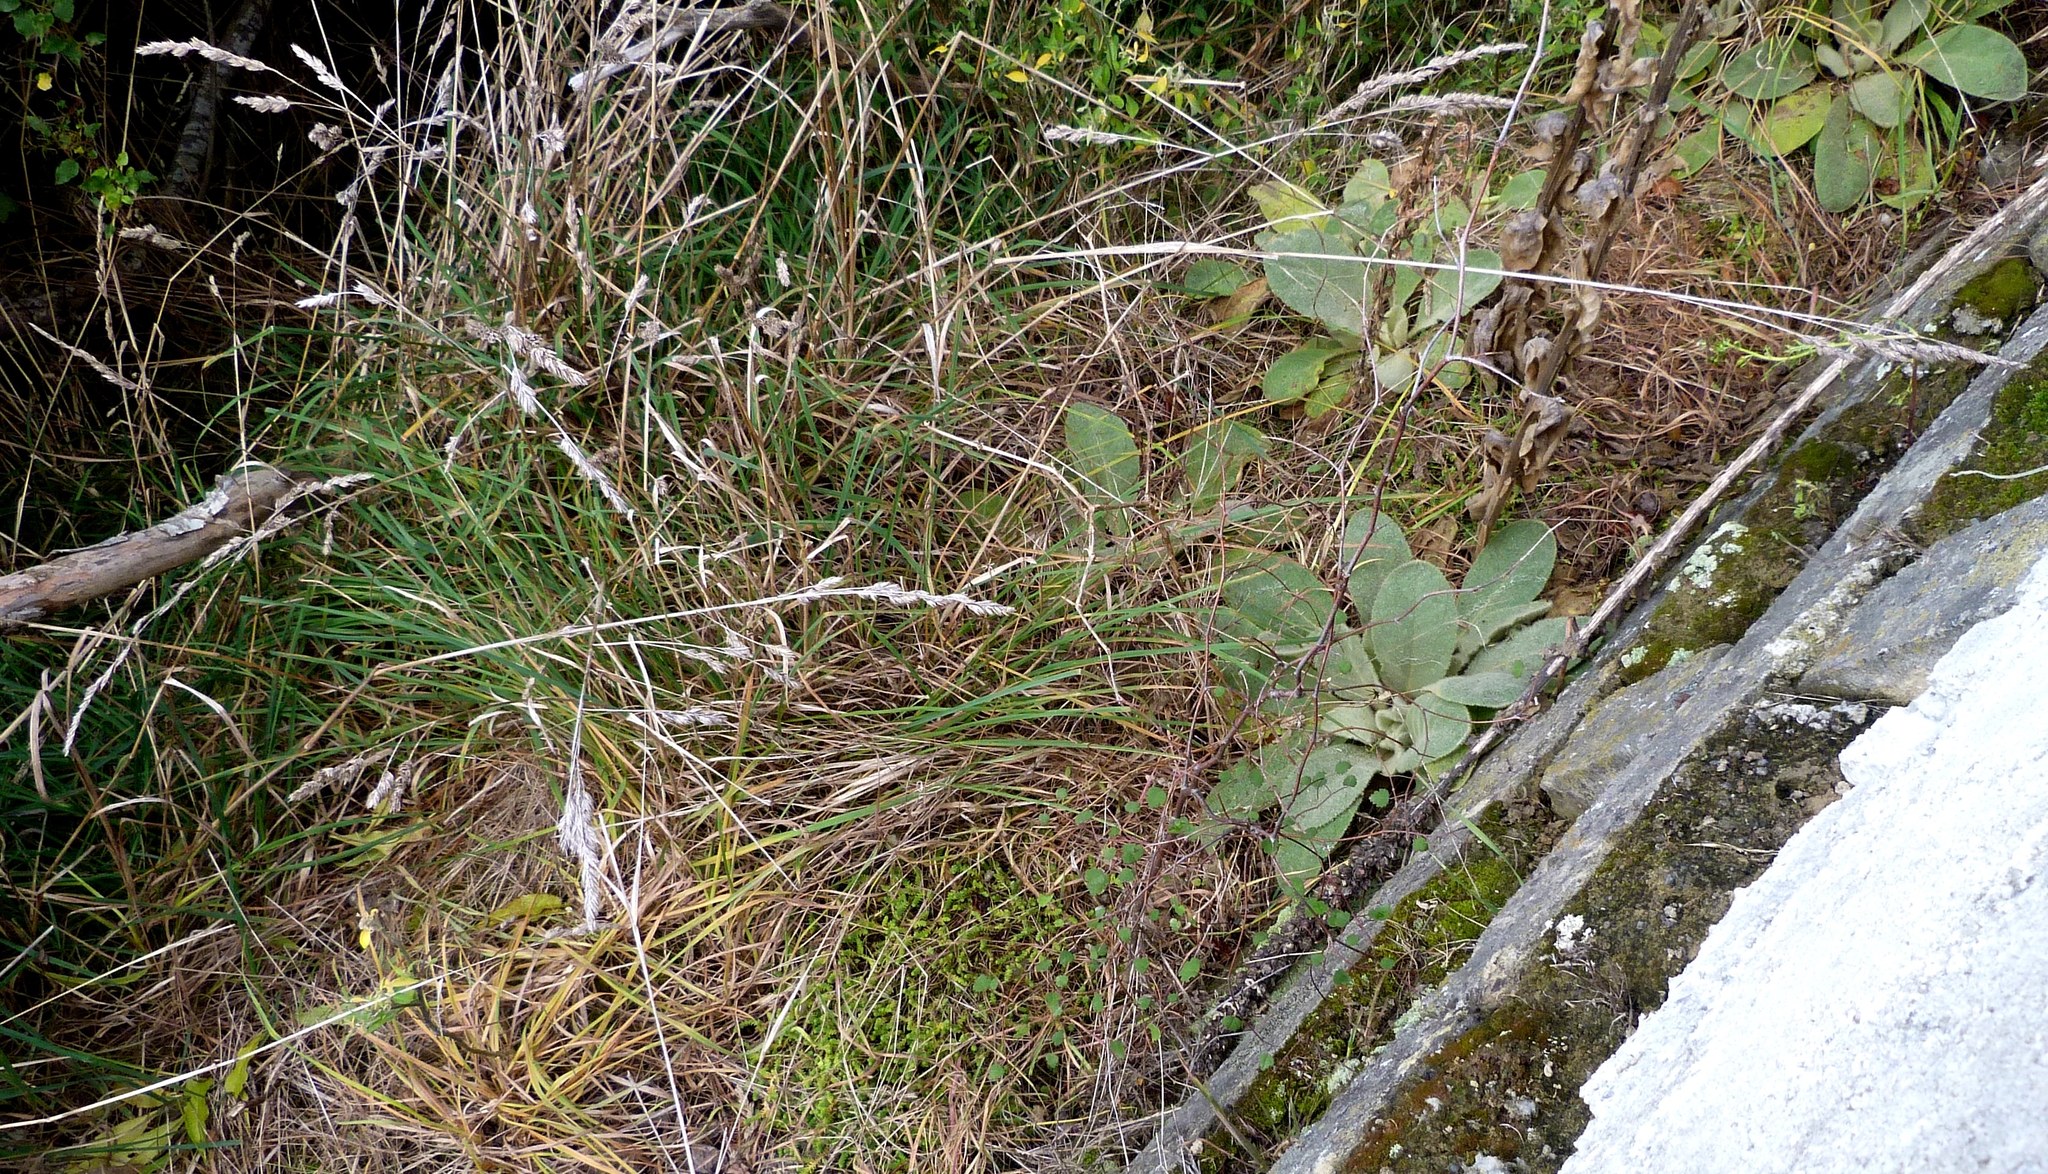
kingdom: Plantae
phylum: Tracheophyta
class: Magnoliopsida
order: Malvales
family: Malvaceae
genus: Plagianthus
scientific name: Plagianthus regius
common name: Manatu
